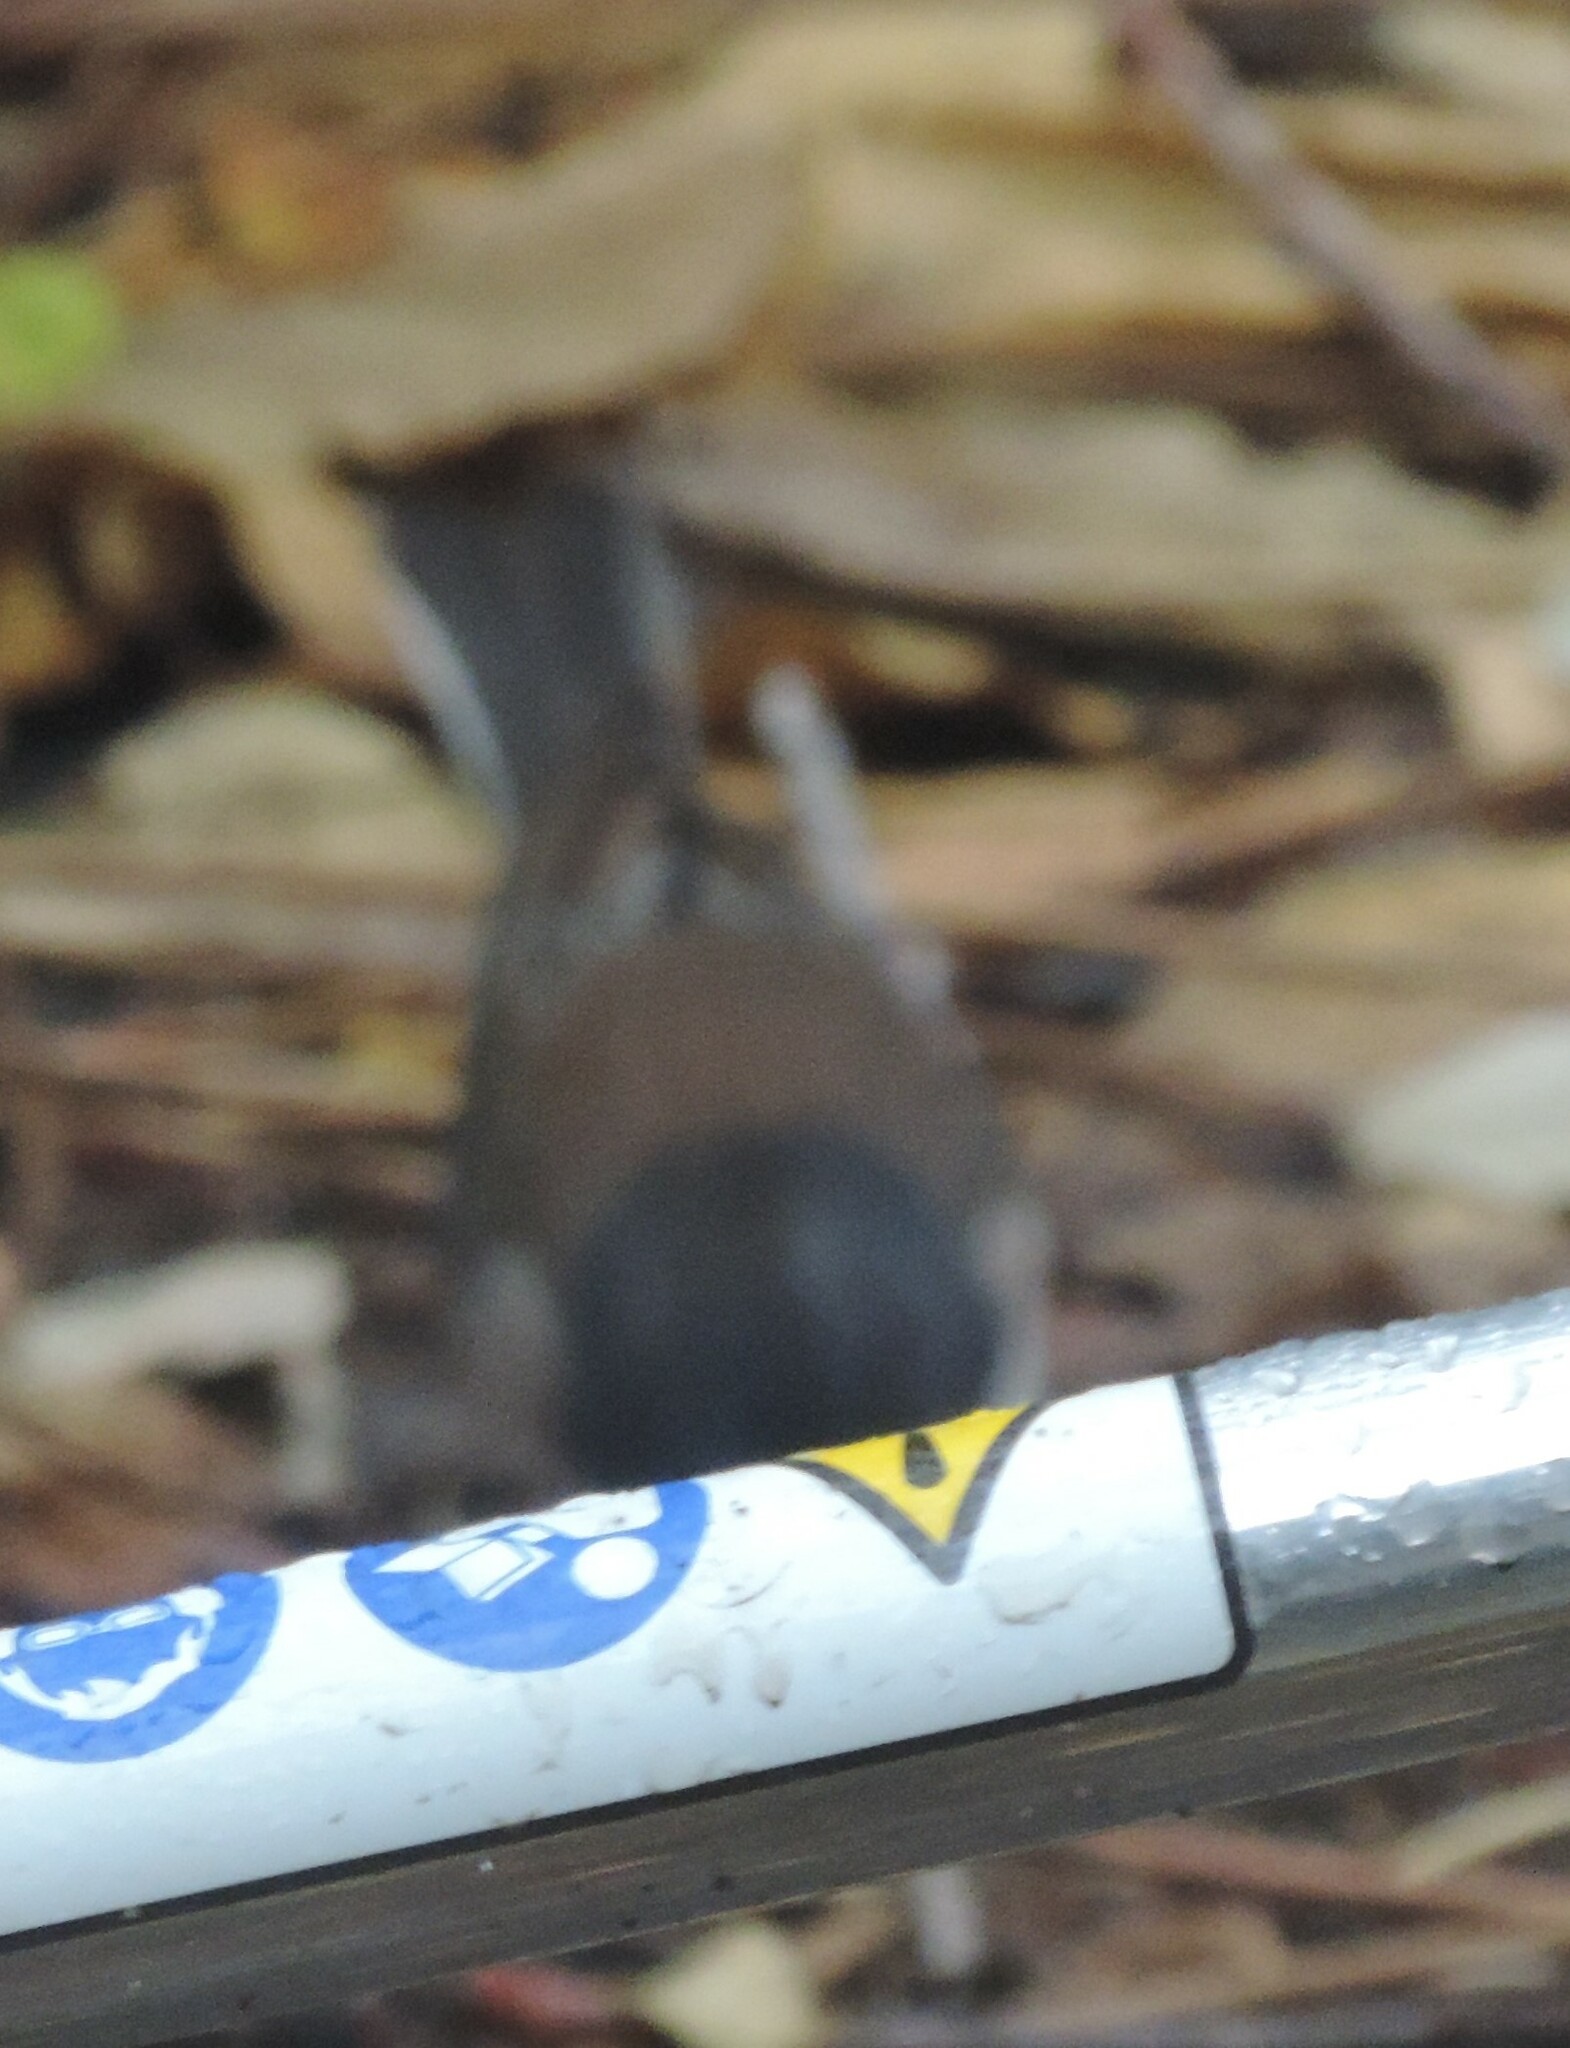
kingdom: Animalia
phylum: Chordata
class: Aves
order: Passeriformes
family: Passerellidae
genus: Junco
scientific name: Junco hyemalis
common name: Dark-eyed junco
